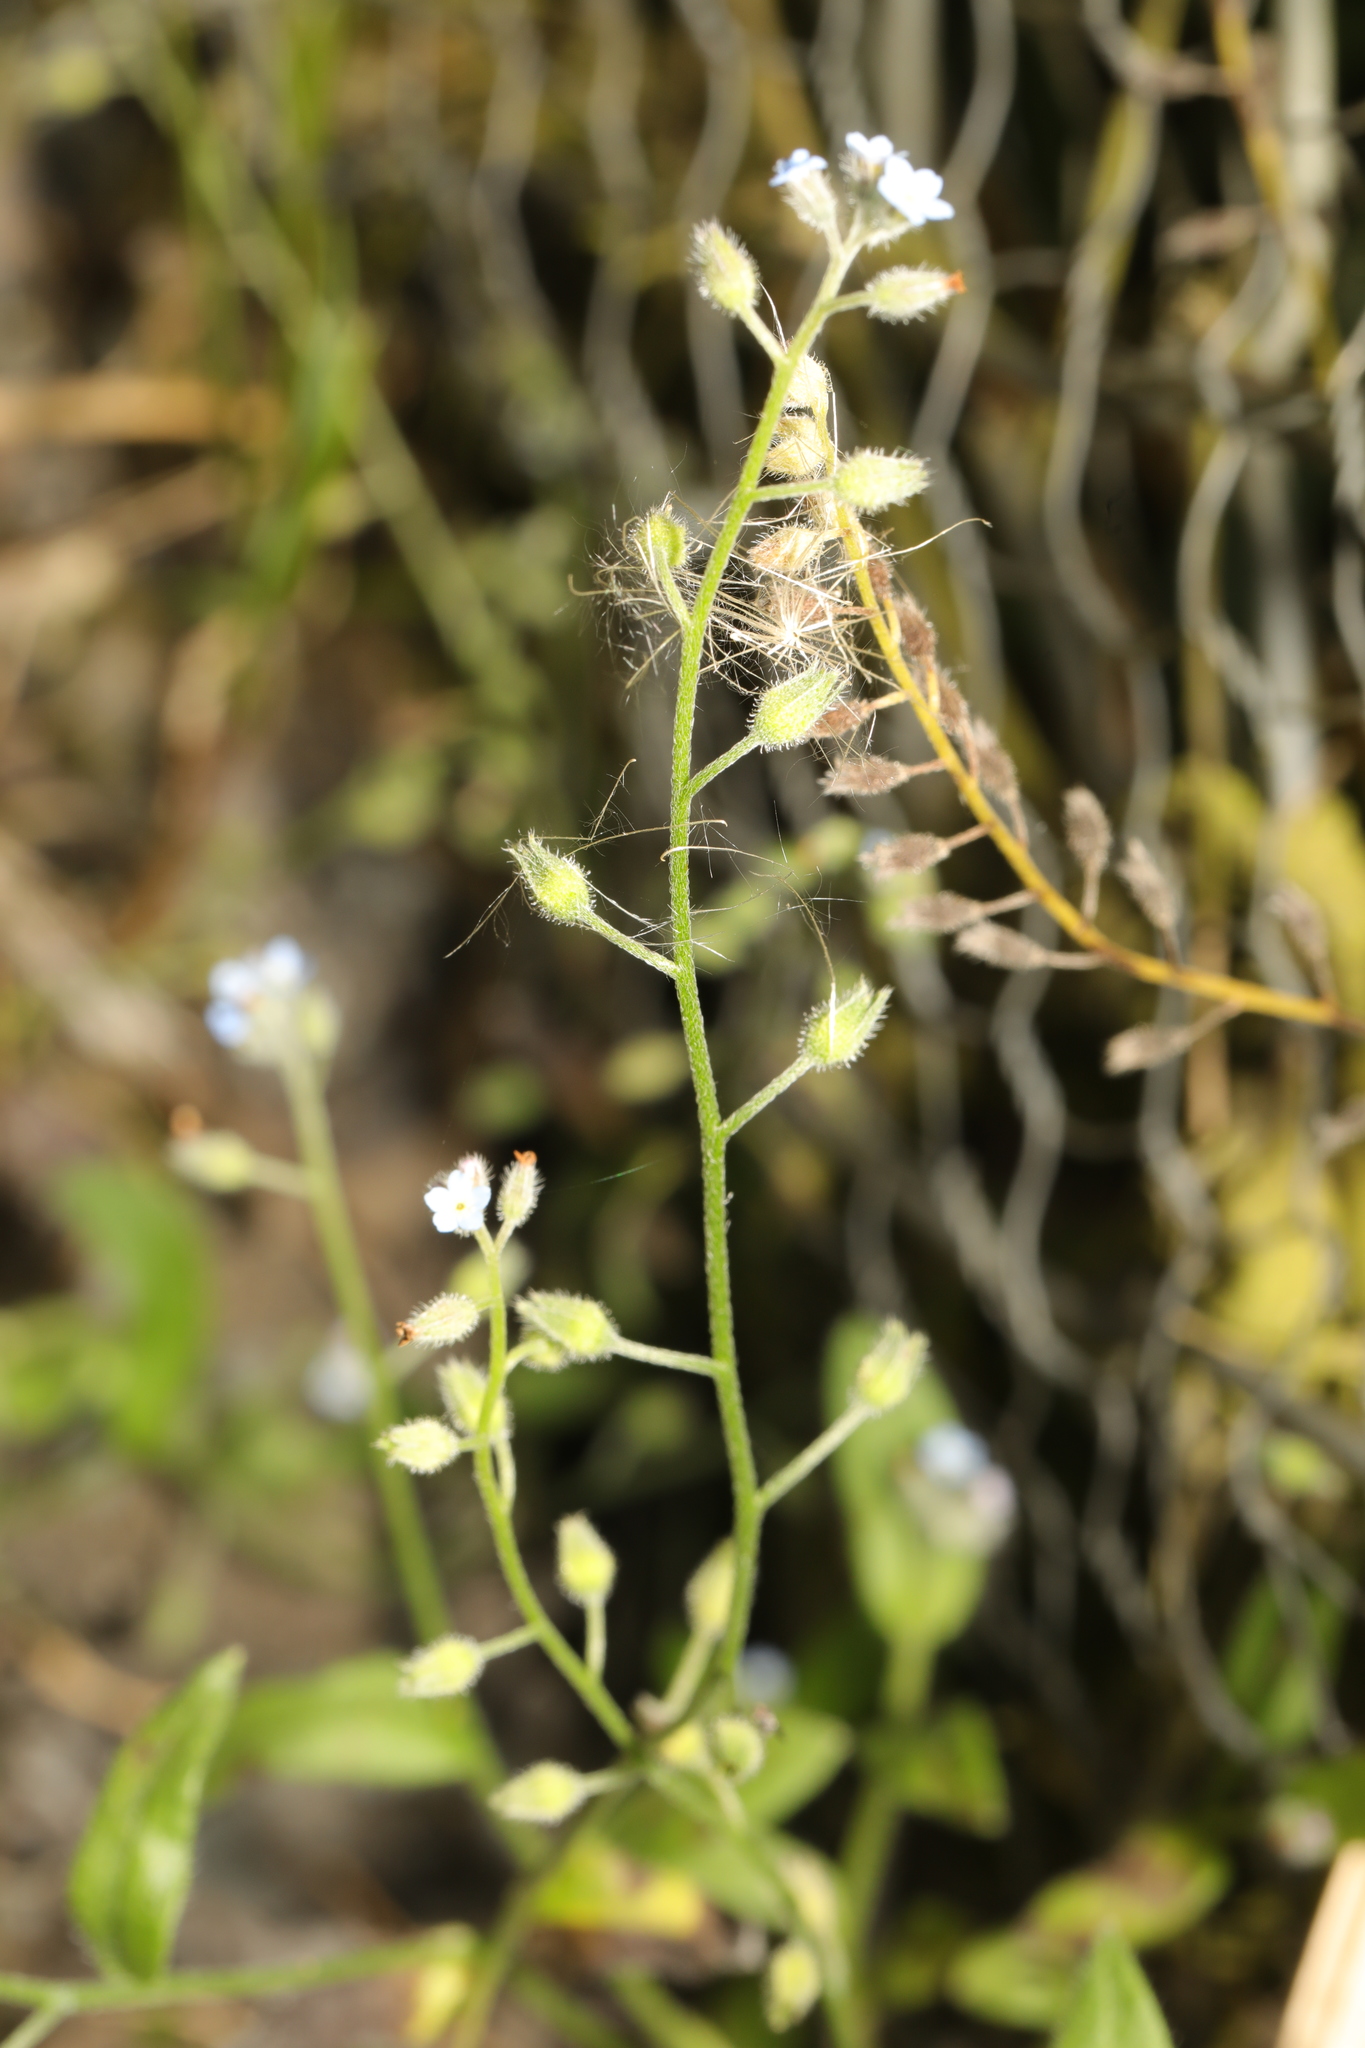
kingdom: Plantae
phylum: Tracheophyta
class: Magnoliopsida
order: Boraginales
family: Boraginaceae
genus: Myosotis
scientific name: Myosotis arvensis
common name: Field forget-me-not
